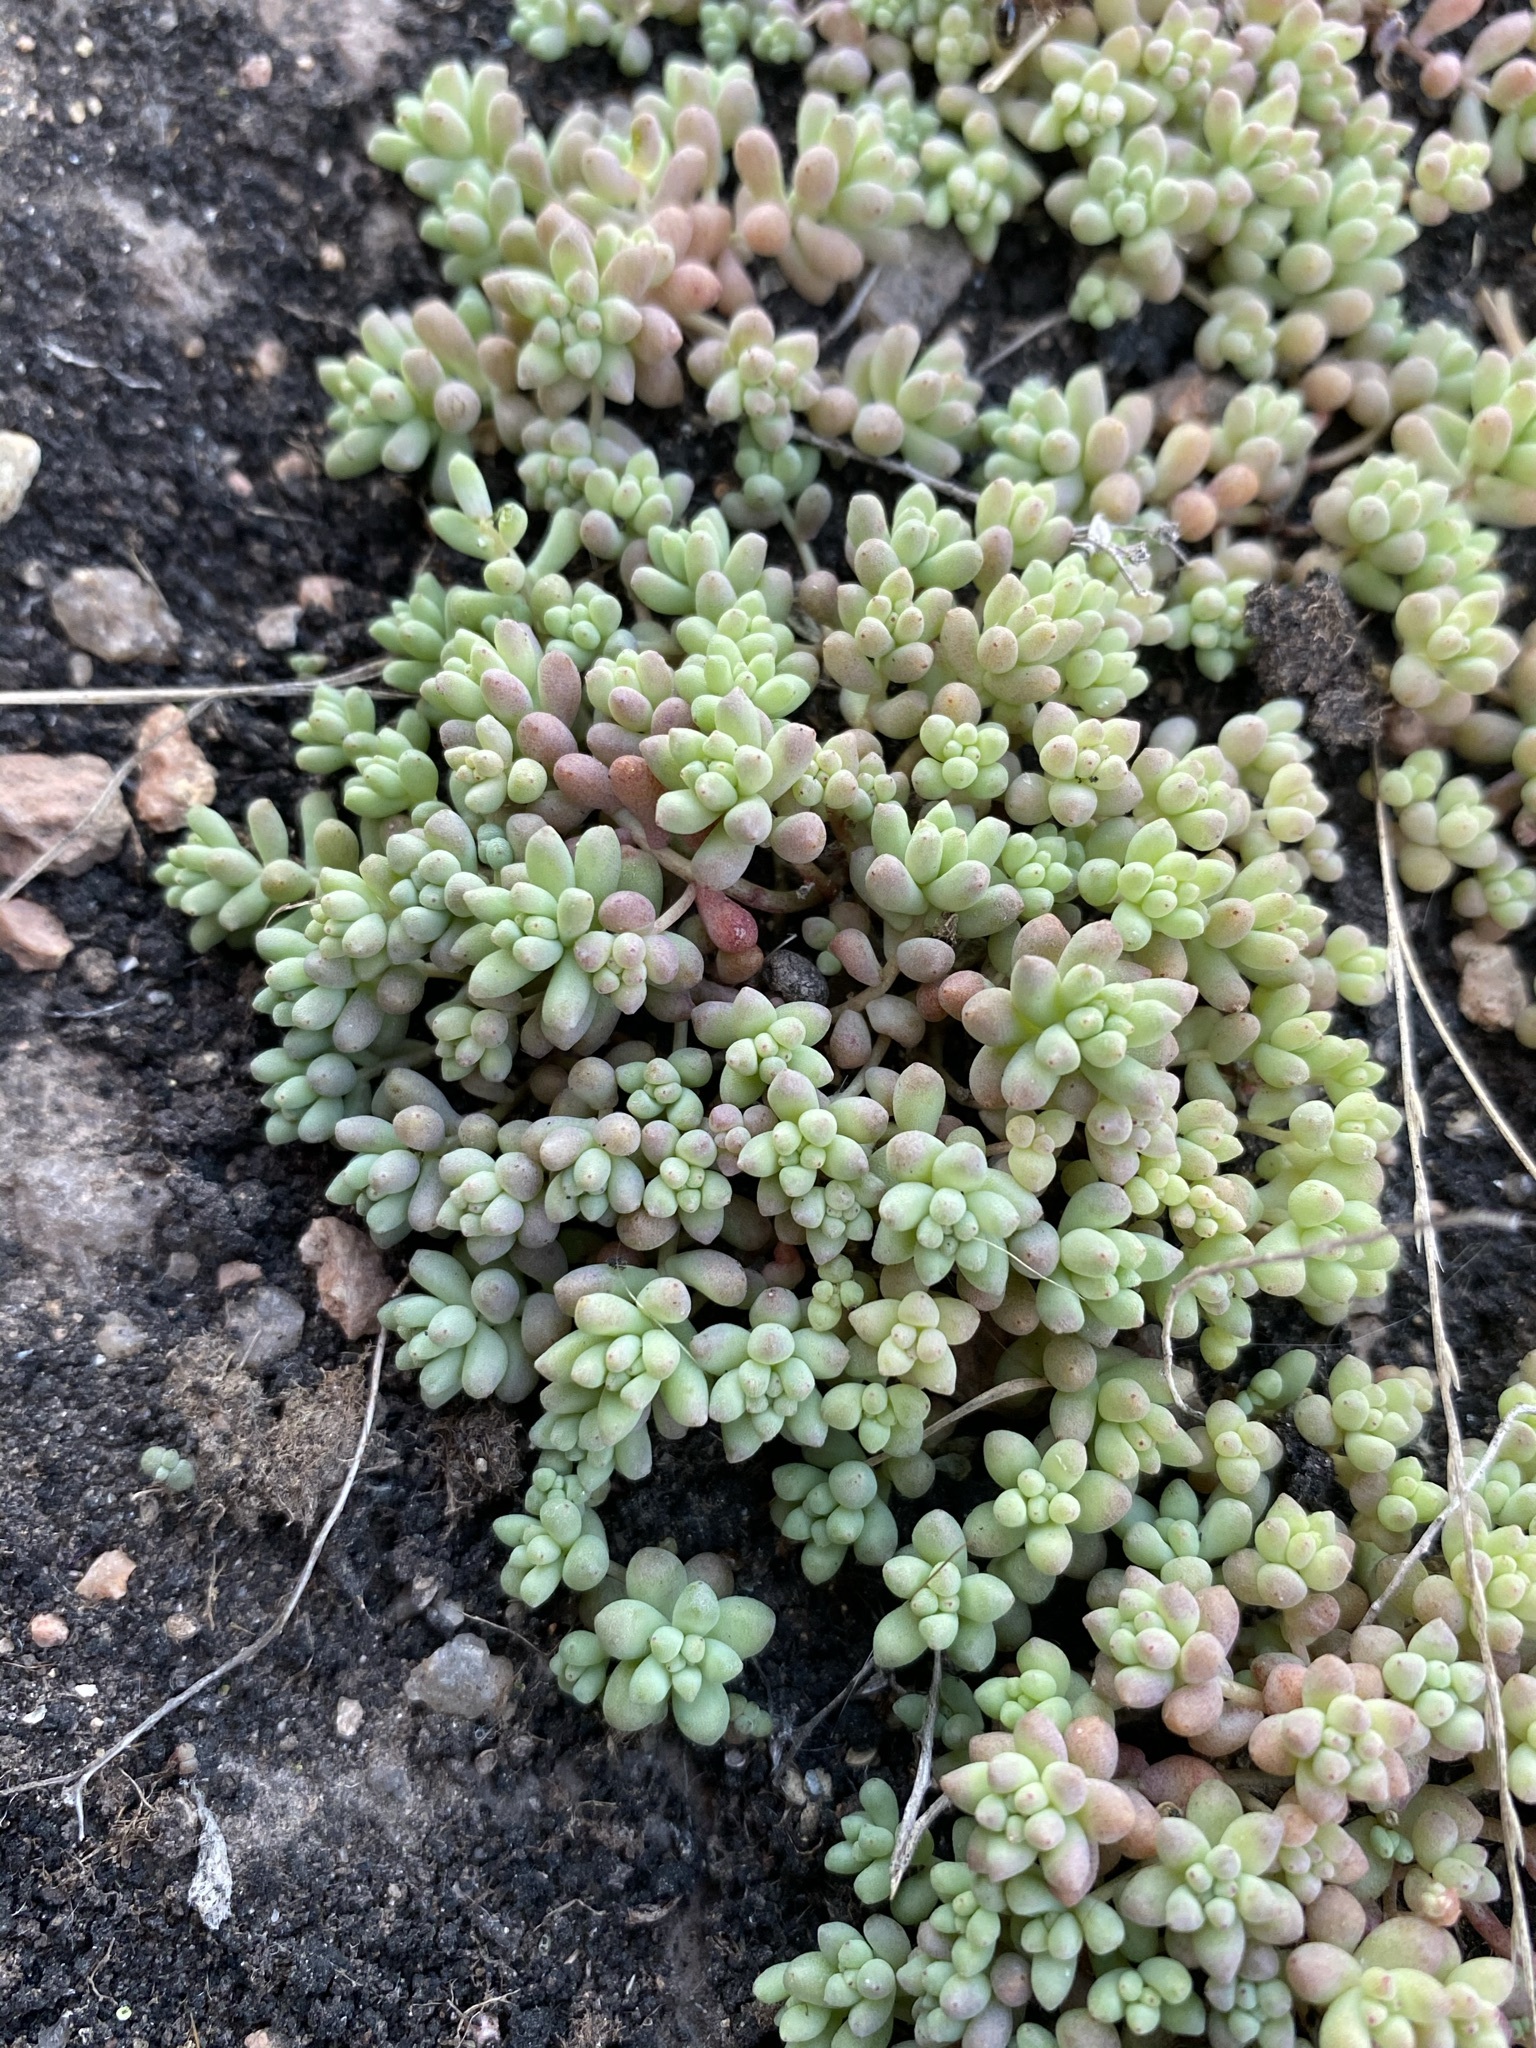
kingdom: Plantae
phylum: Tracheophyta
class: Magnoliopsida
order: Saxifragales
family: Crassulaceae
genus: Sedum
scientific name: Sedum nuttallii
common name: Yellow stonecrop
